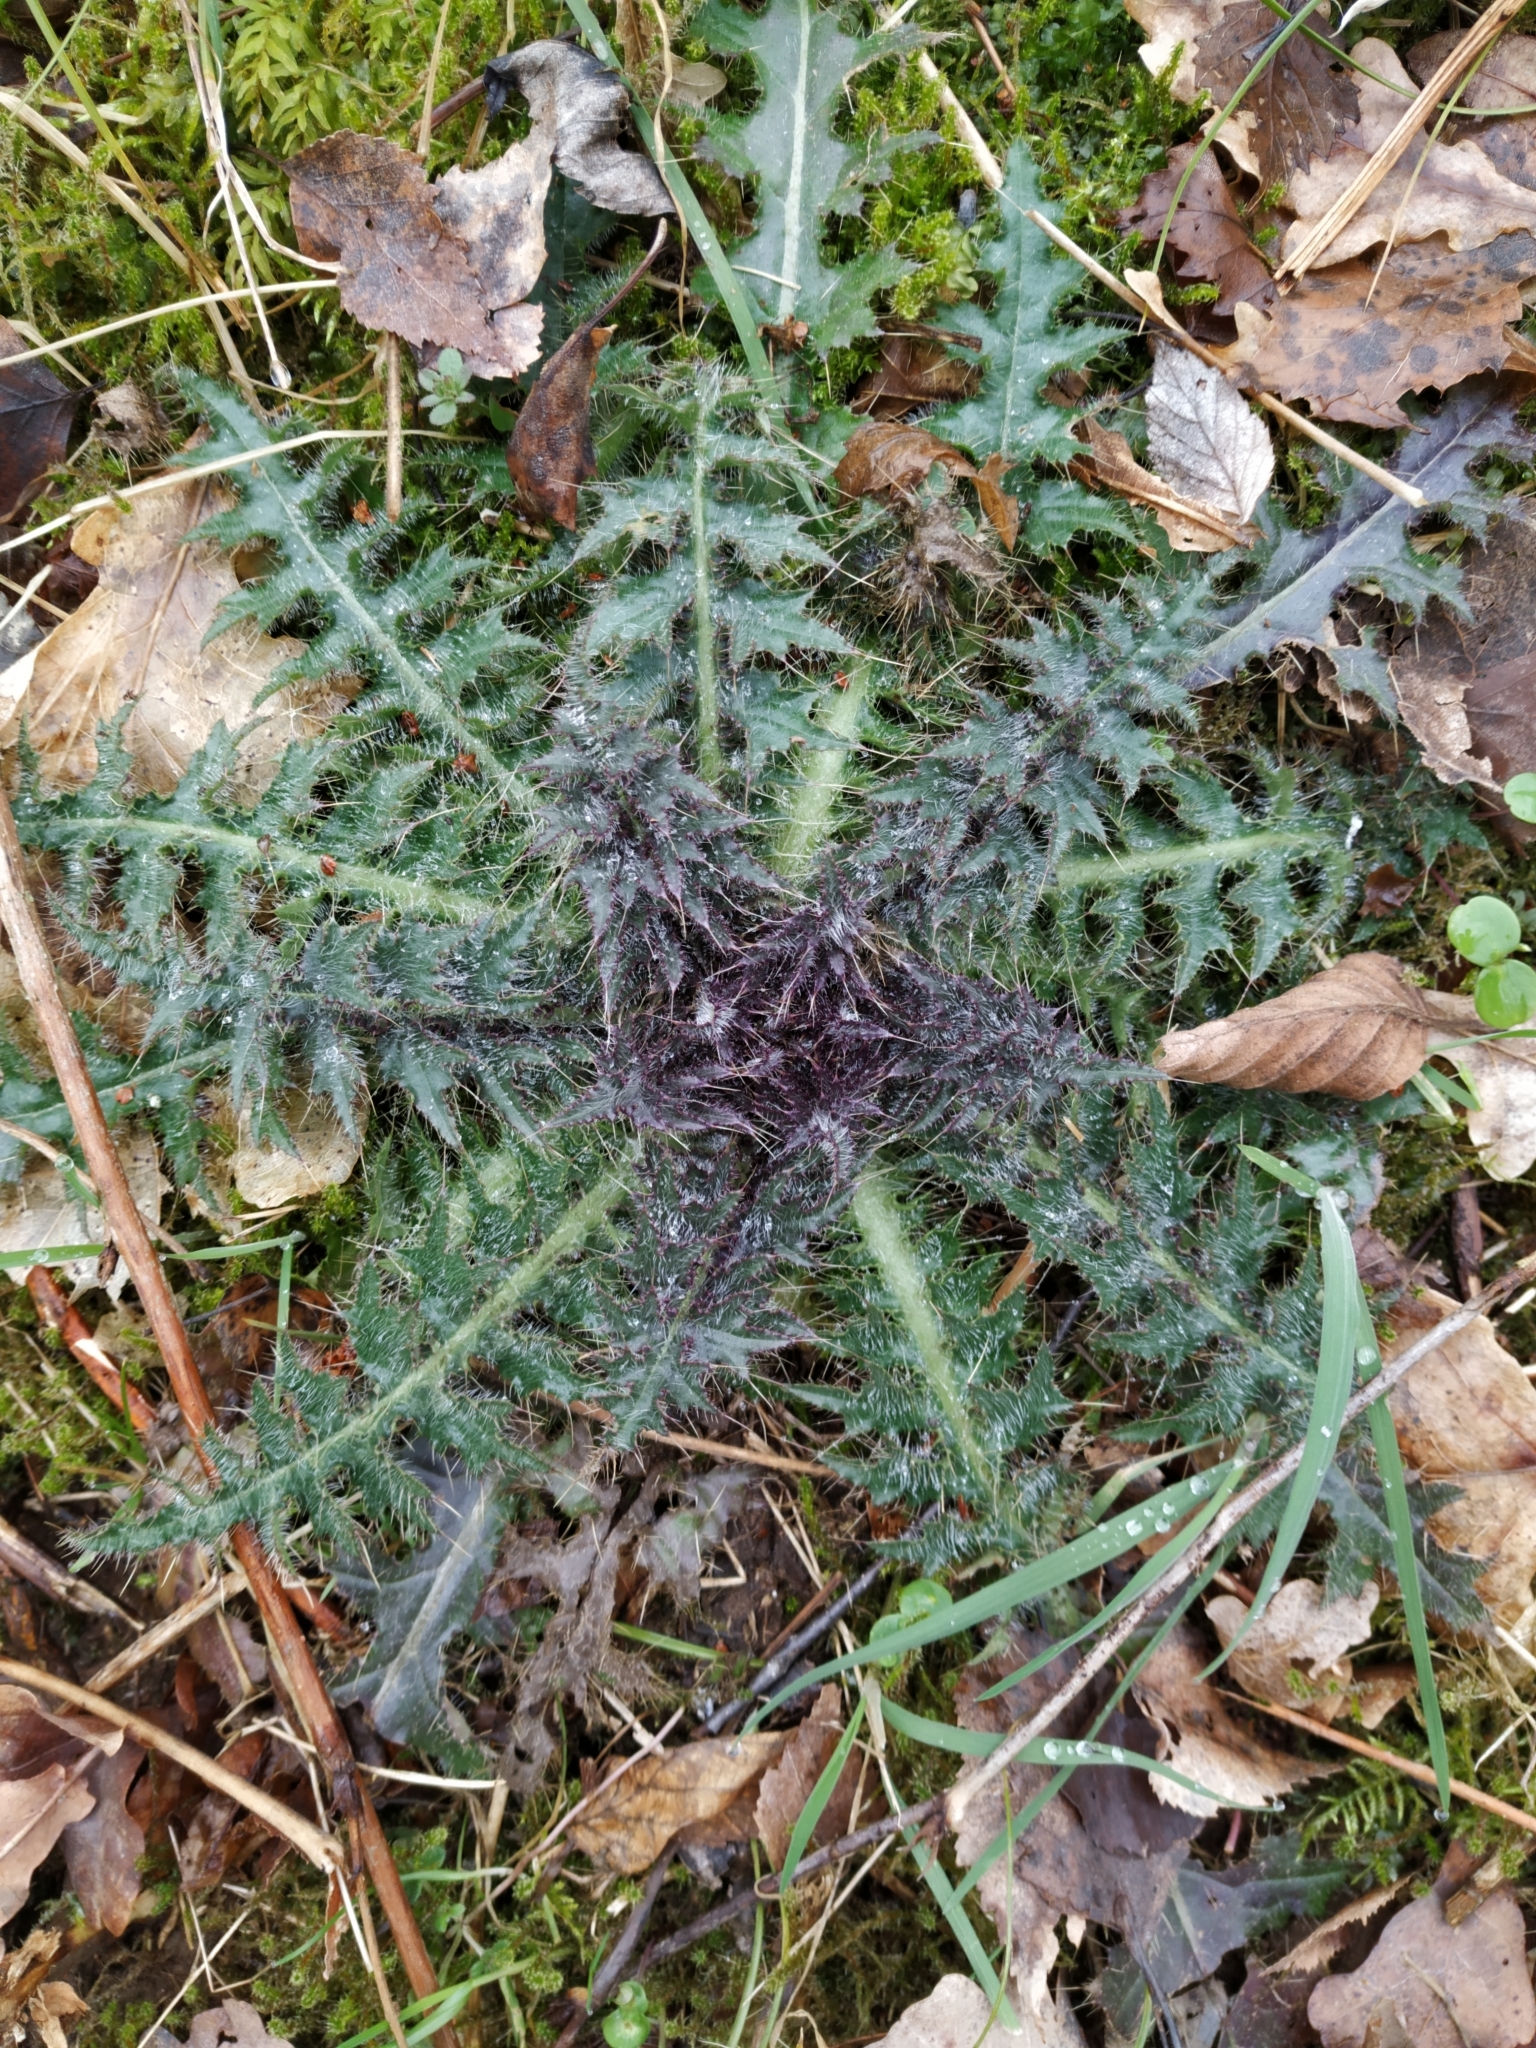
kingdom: Plantae
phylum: Tracheophyta
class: Magnoliopsida
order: Asterales
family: Asteraceae
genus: Cirsium
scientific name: Cirsium palustre
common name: Marsh thistle
